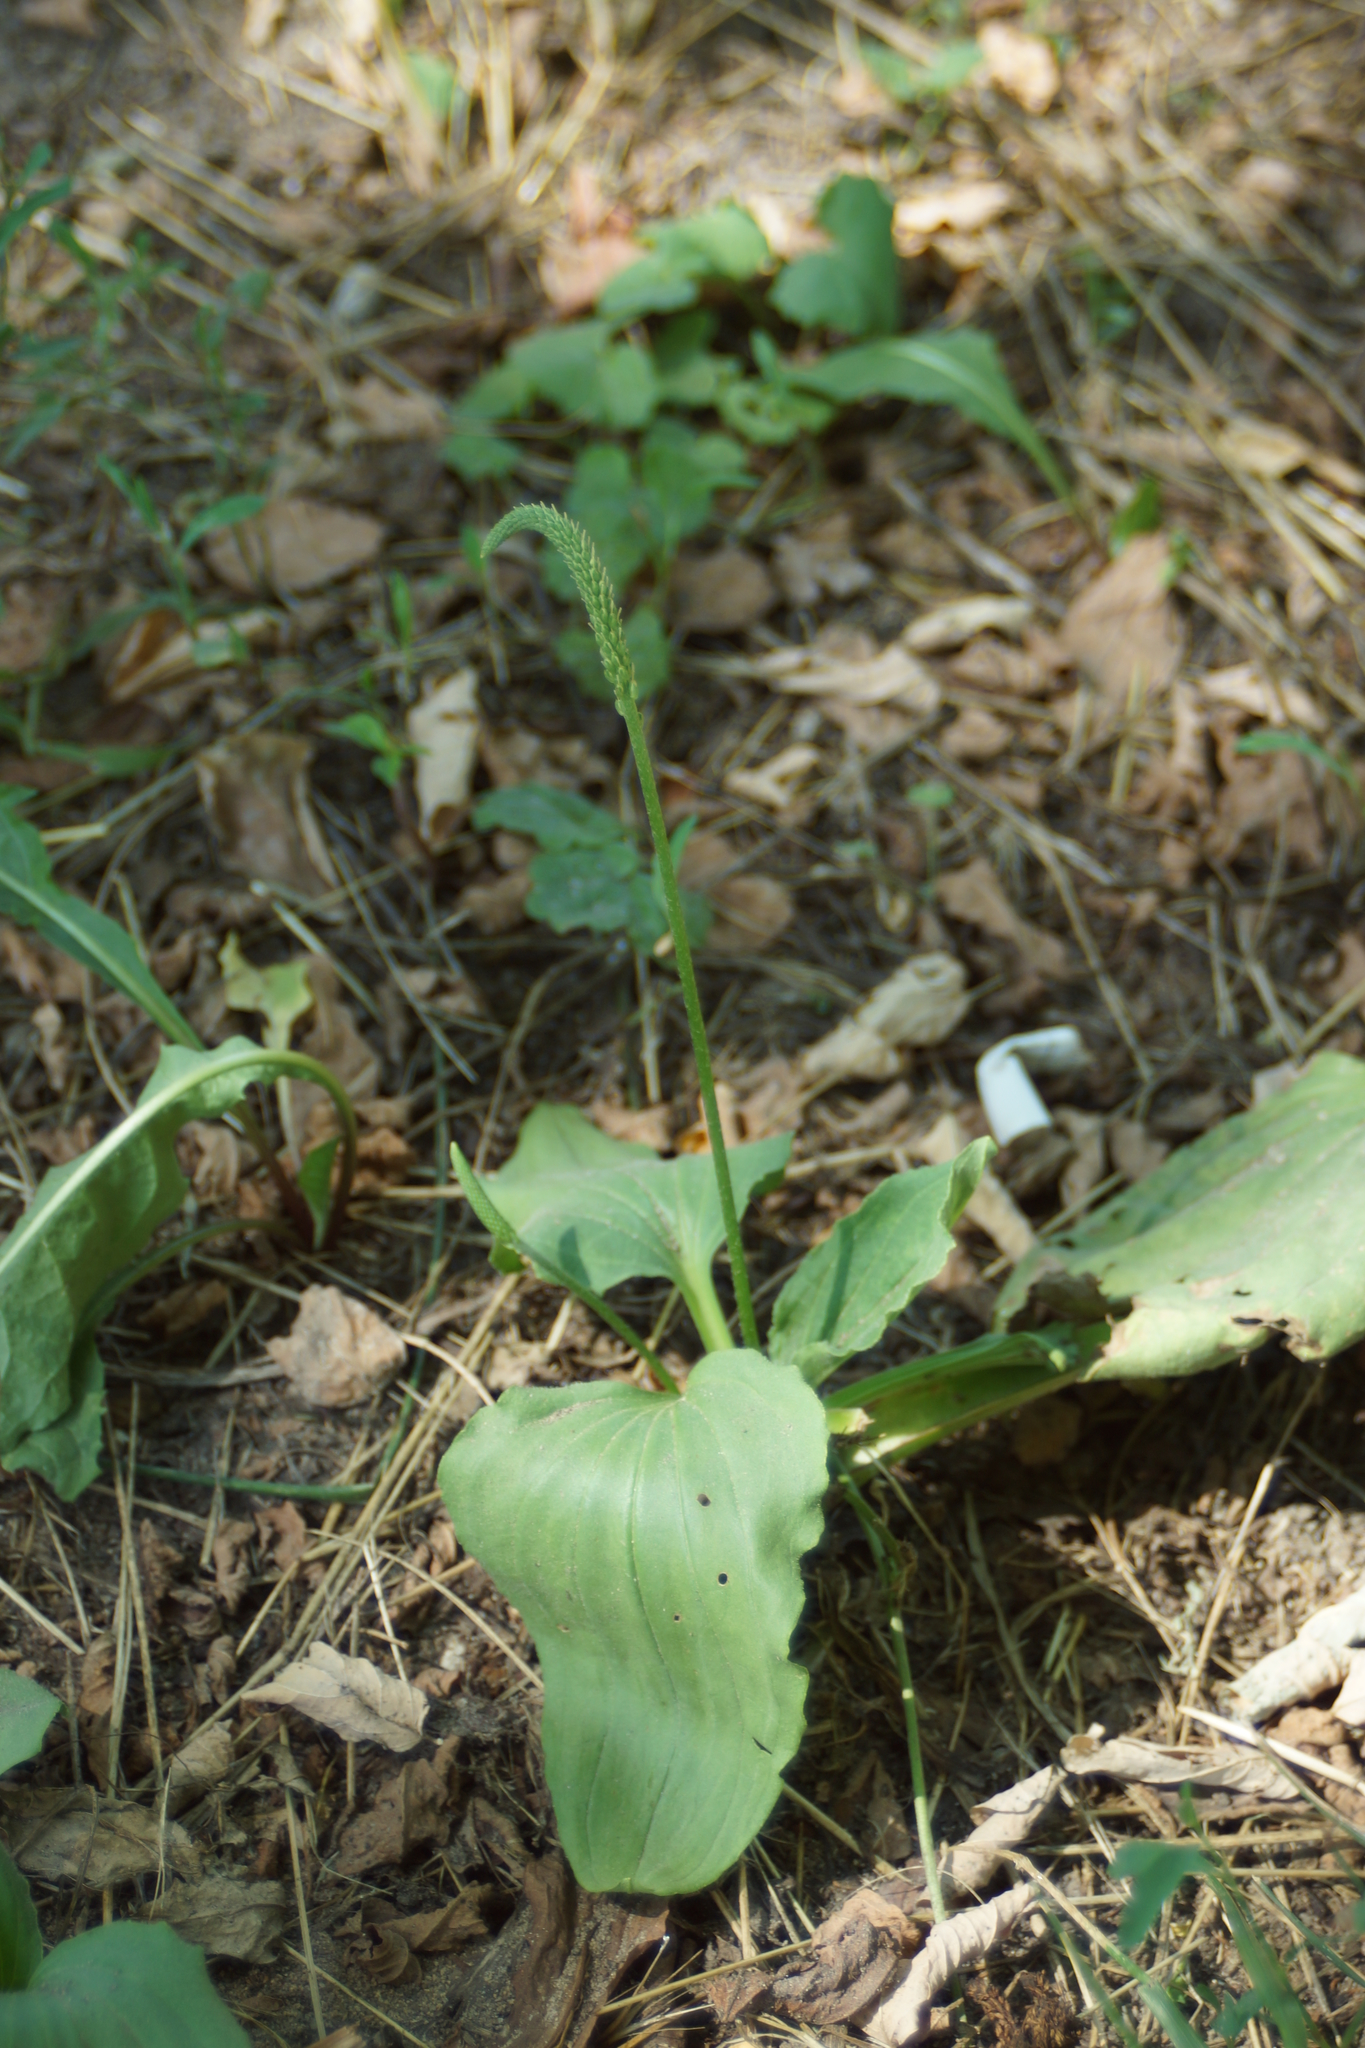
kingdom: Plantae
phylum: Tracheophyta
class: Magnoliopsida
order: Lamiales
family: Plantaginaceae
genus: Plantago
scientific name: Plantago major
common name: Common plantain
